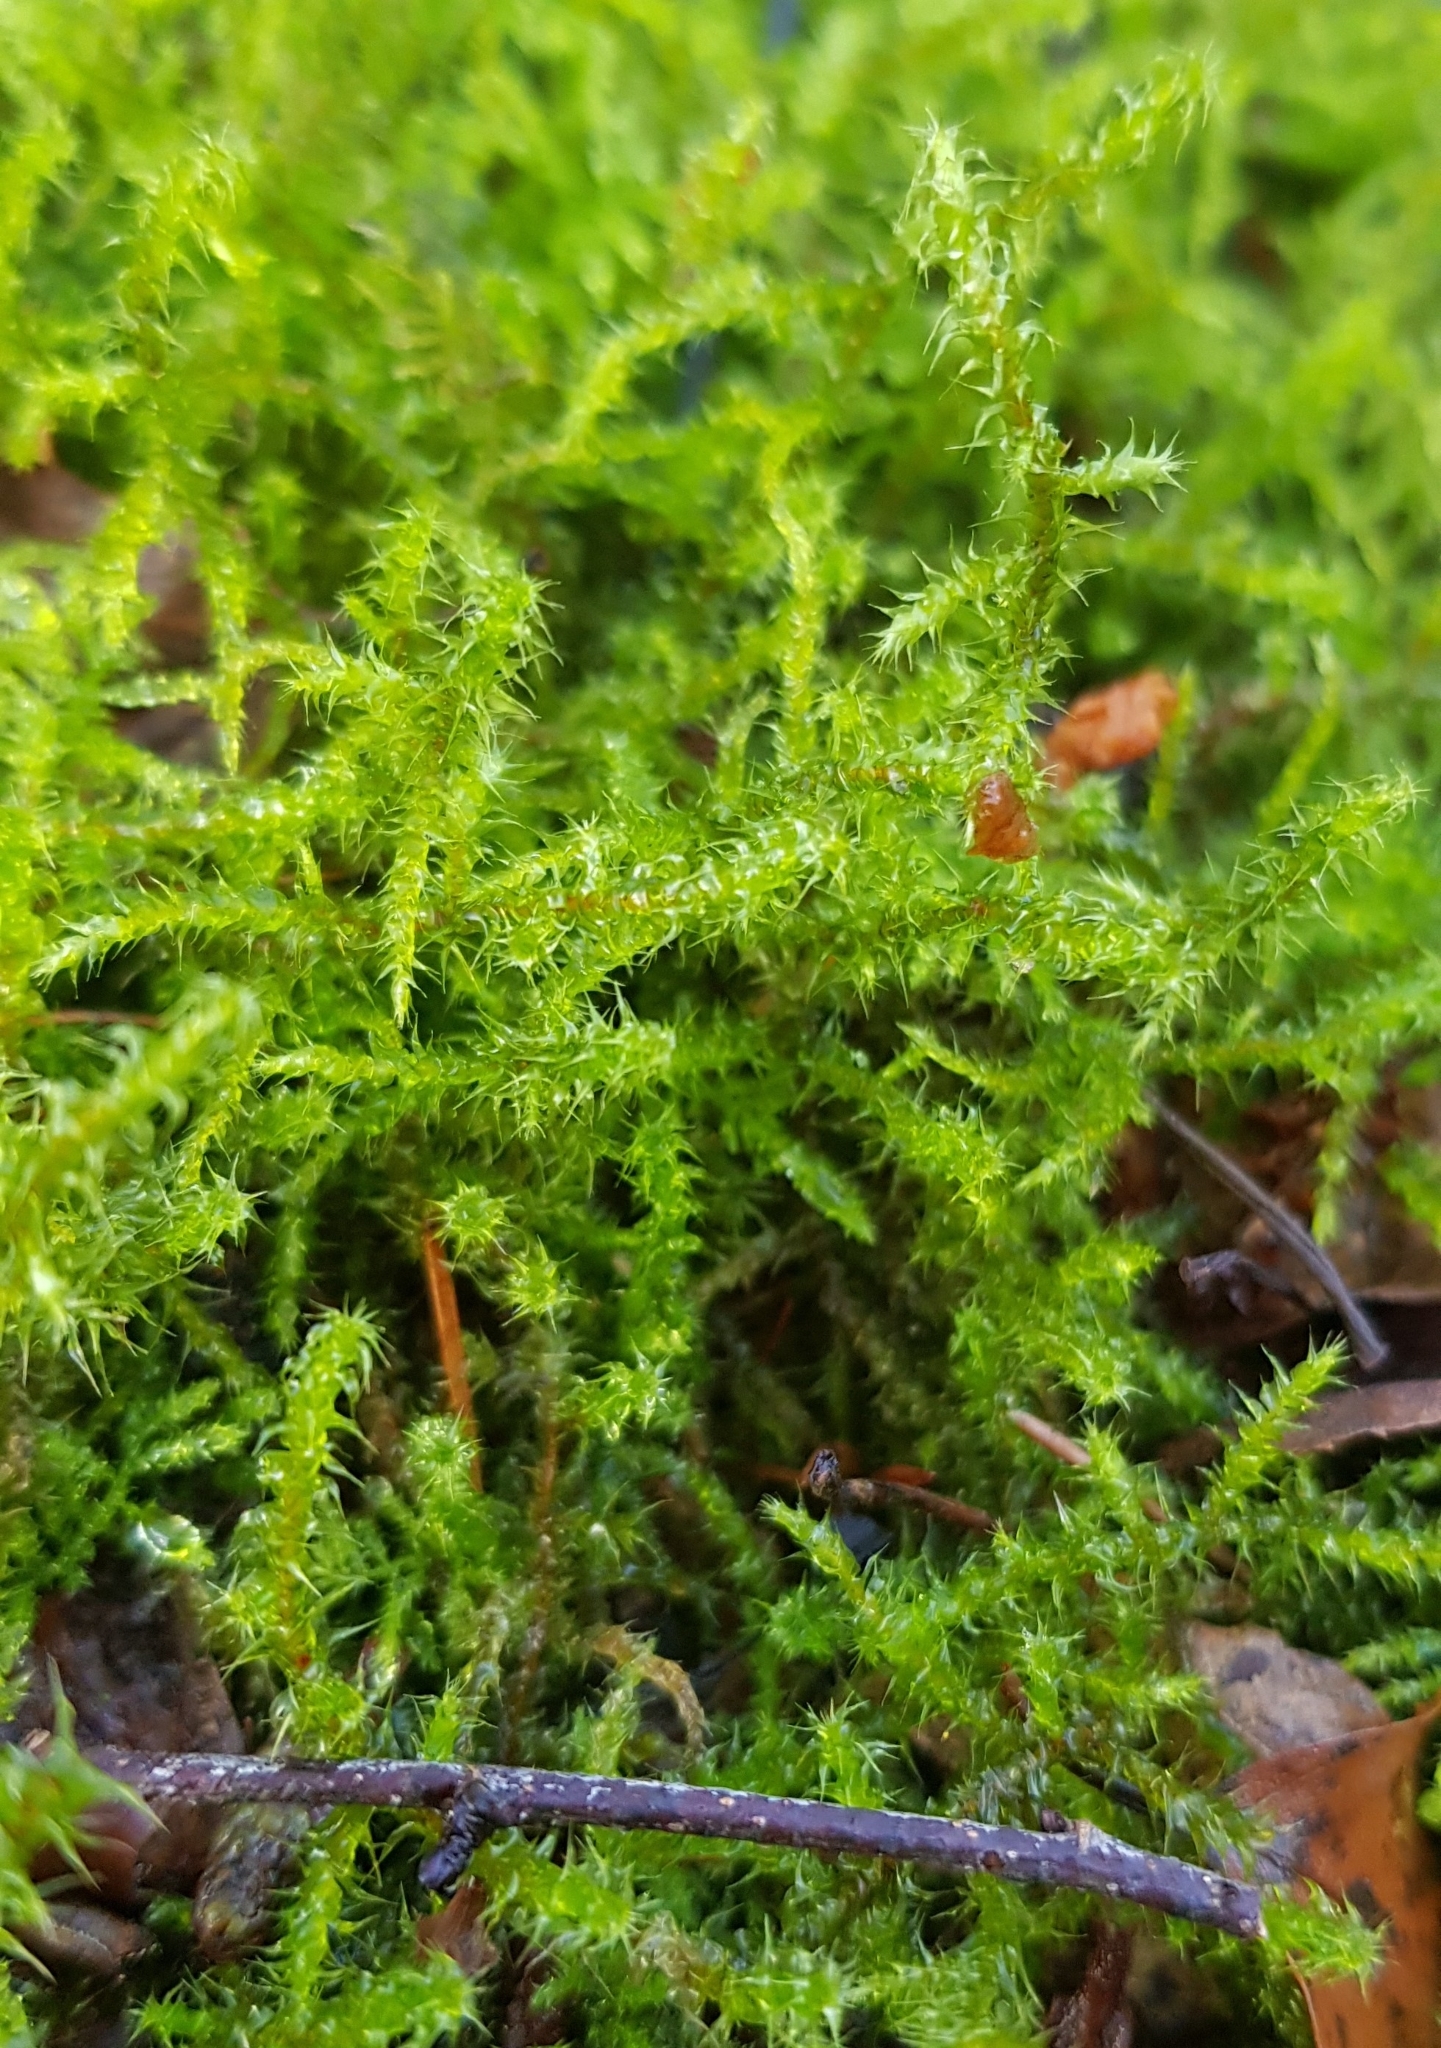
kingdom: Plantae
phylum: Bryophyta
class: Bryopsida
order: Hypnales
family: Hylocomiaceae
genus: Rhytidiadelphus
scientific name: Rhytidiadelphus squarrosus
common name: Springy turf-moss
